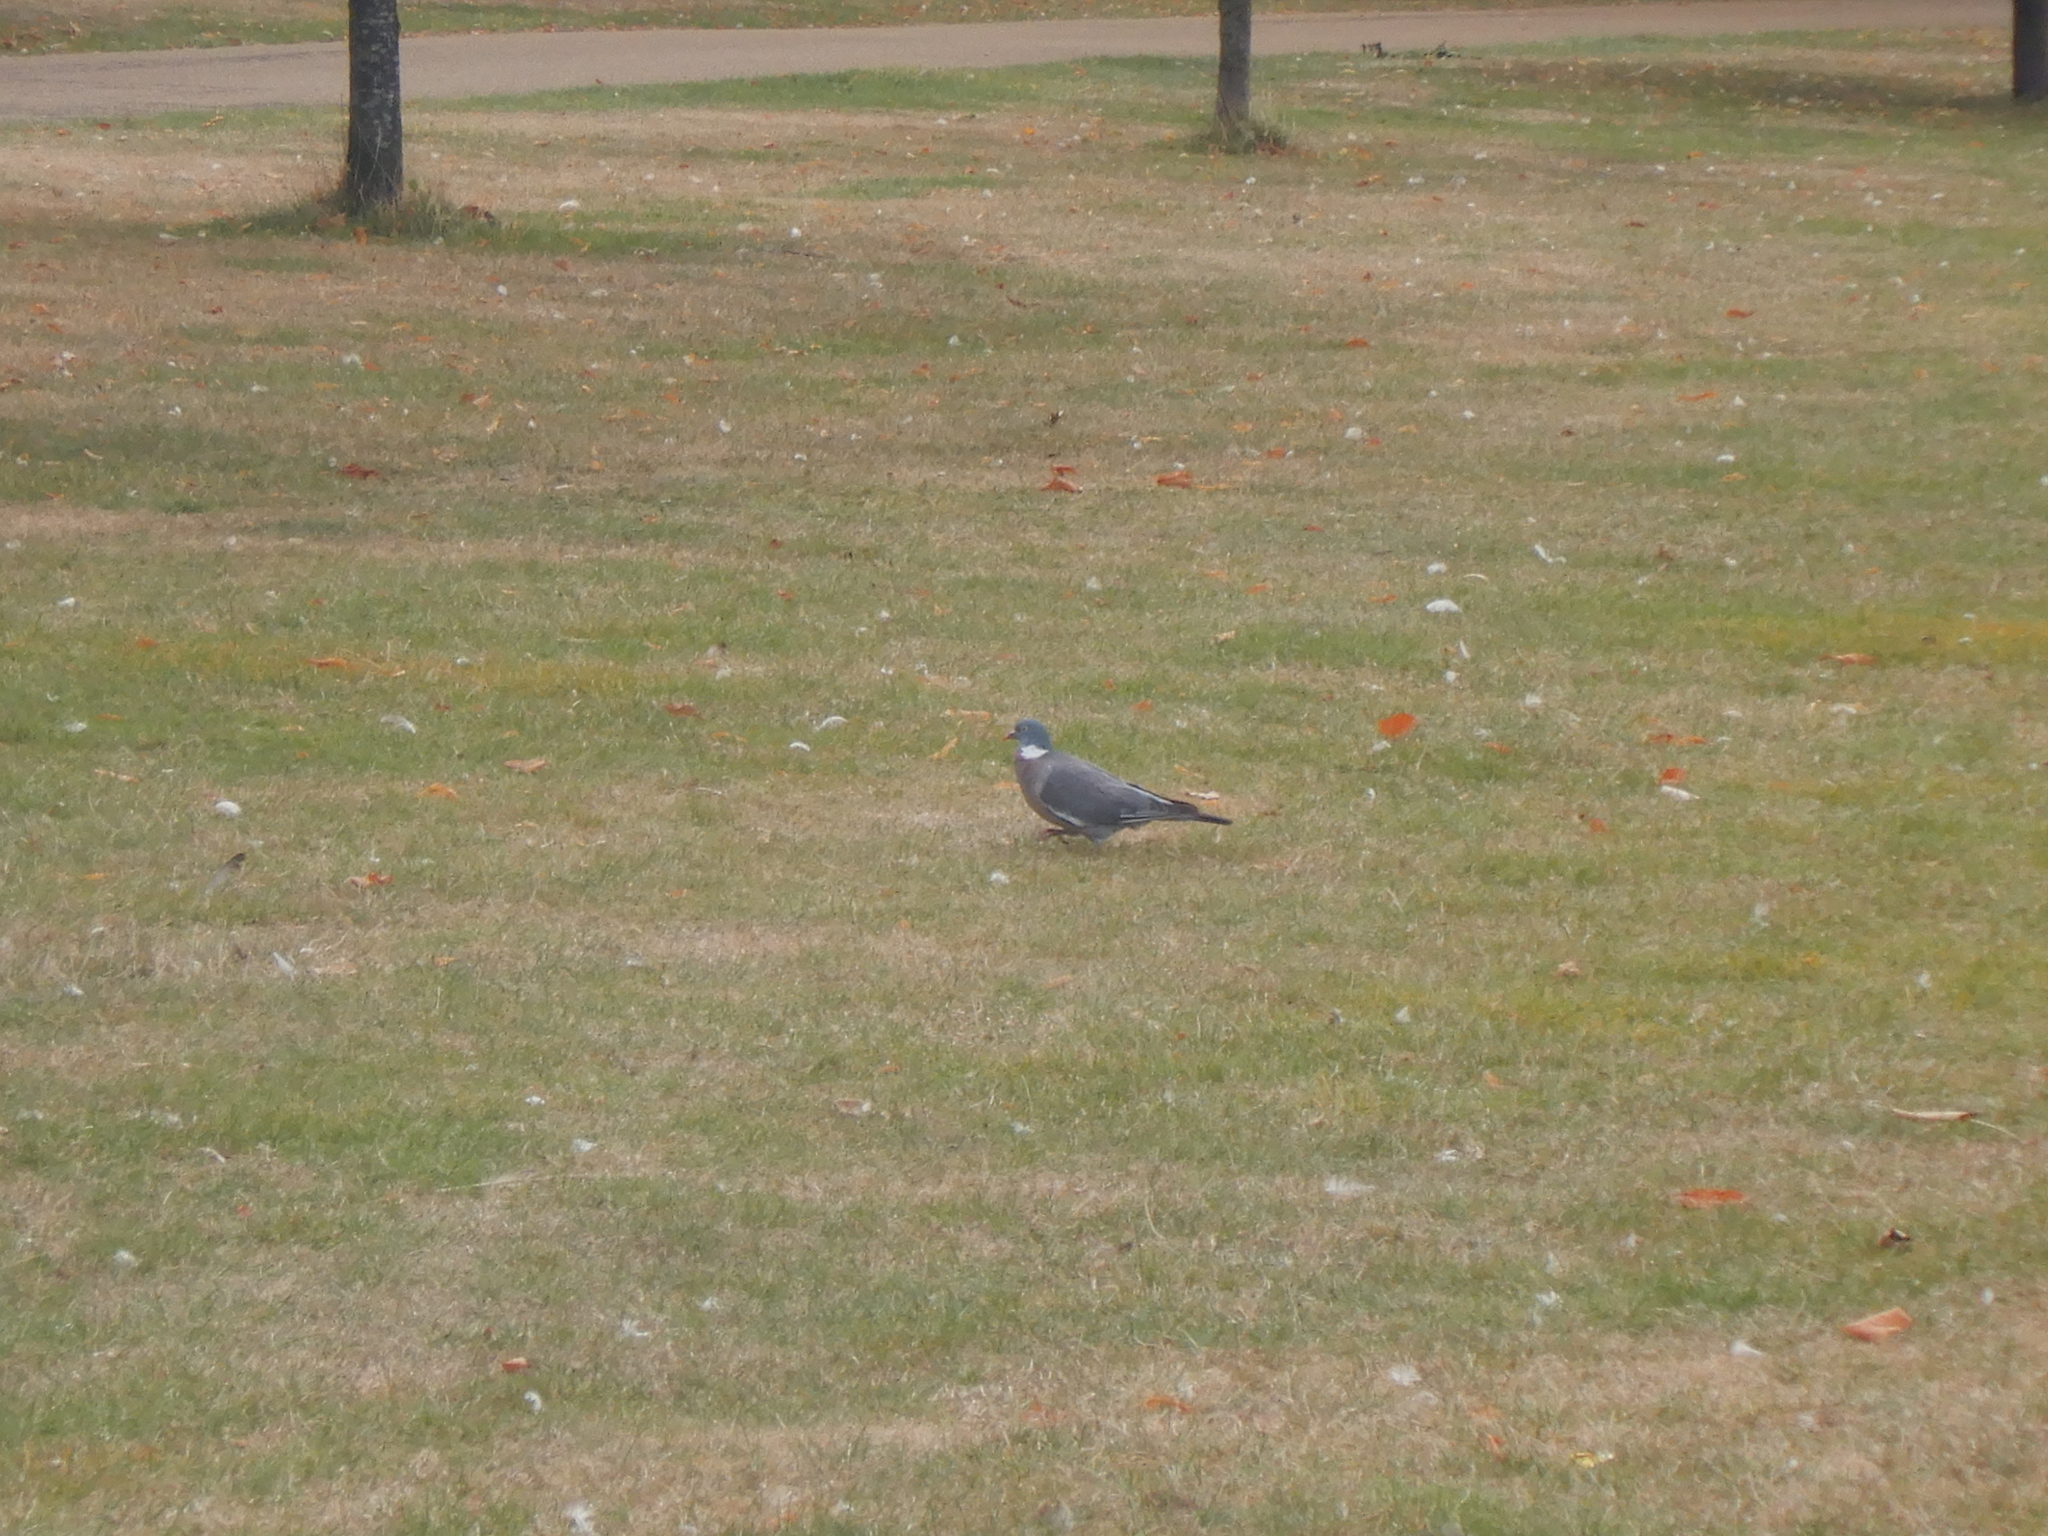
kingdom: Animalia
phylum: Chordata
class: Aves
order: Columbiformes
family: Columbidae
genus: Columba
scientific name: Columba palumbus
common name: Common wood pigeon
